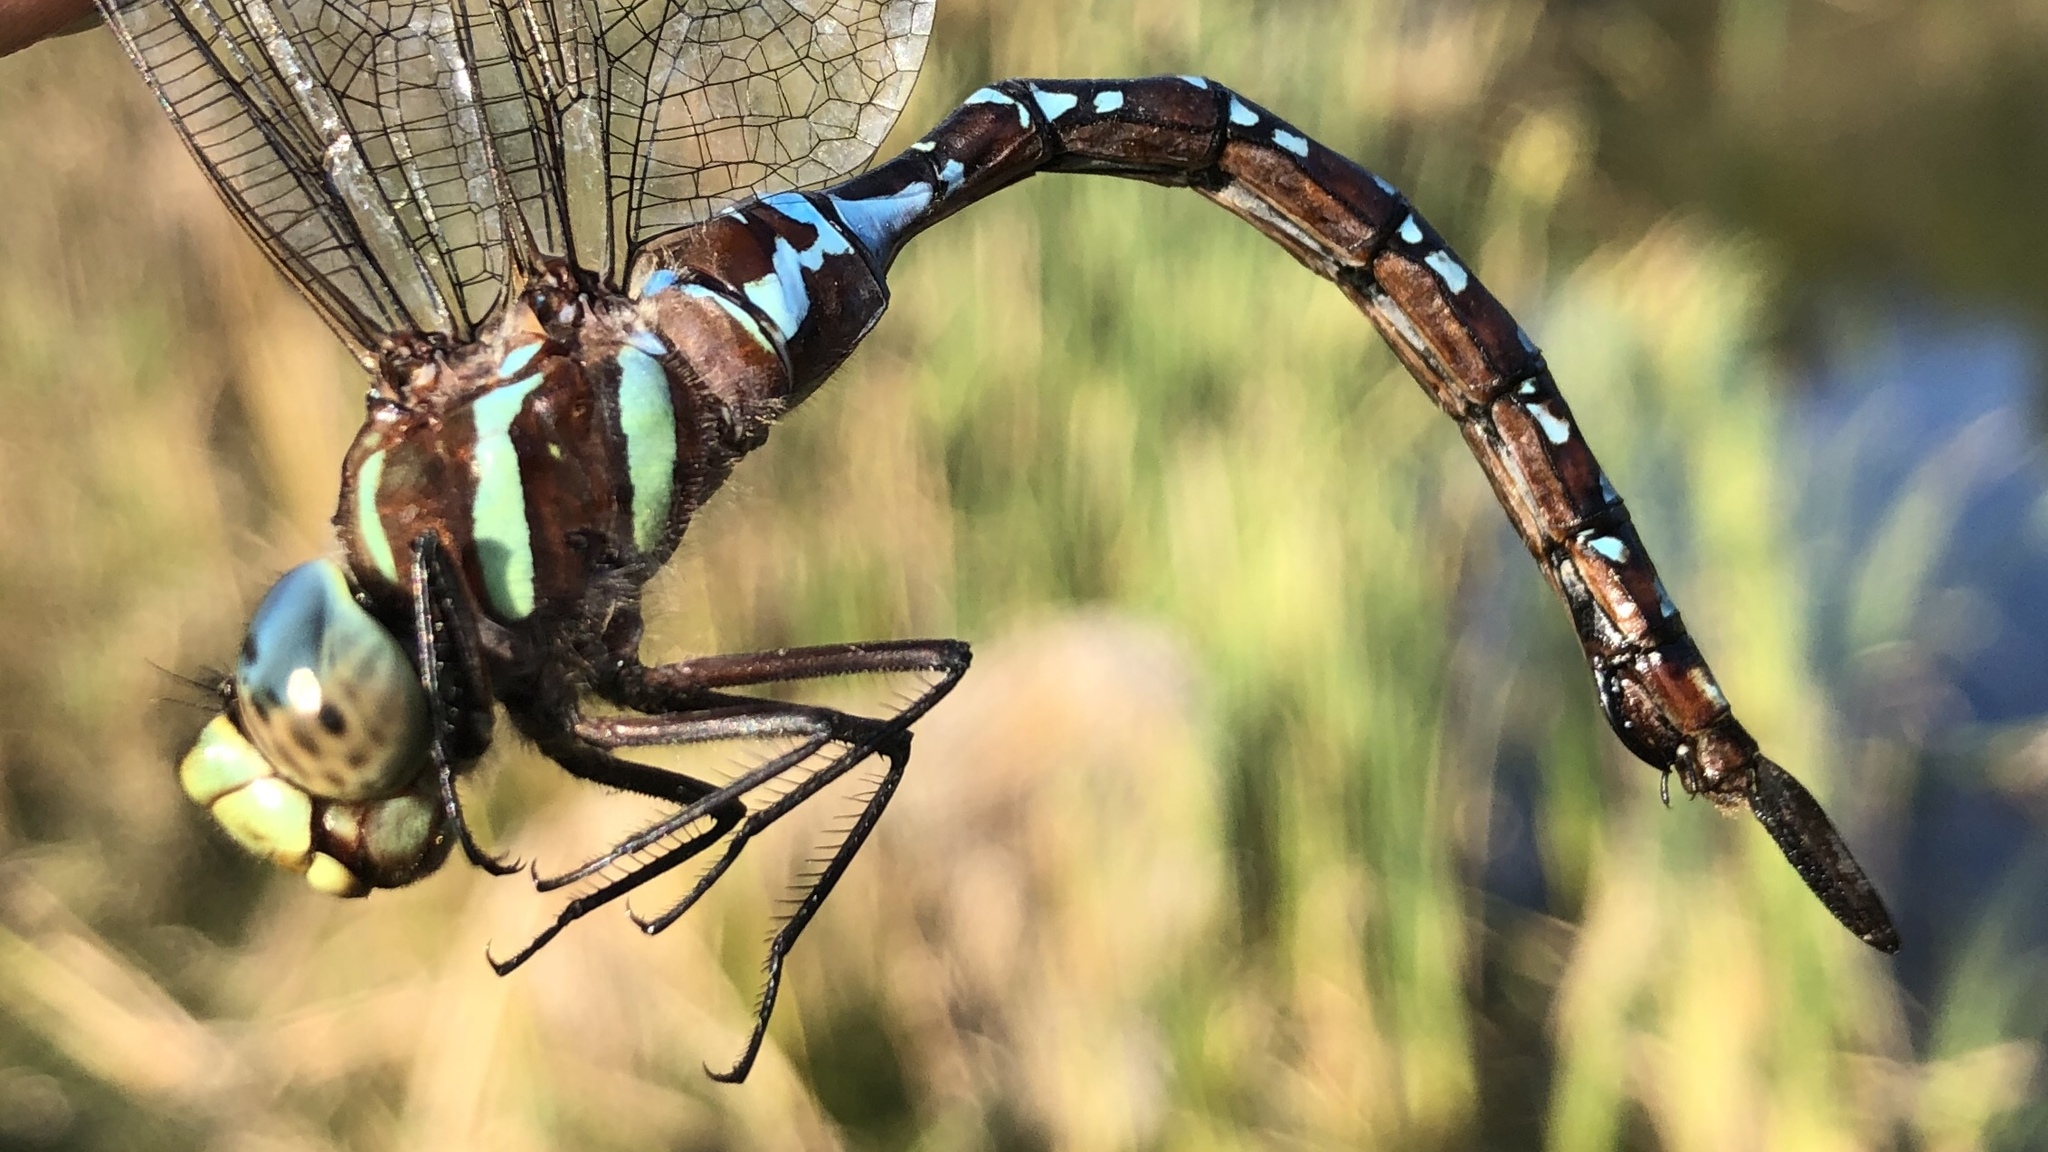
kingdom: Animalia
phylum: Arthropoda
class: Insecta
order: Odonata
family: Aeshnidae
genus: Aeshna
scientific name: Aeshna tuberculifera
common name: Aeschne à tubercules
